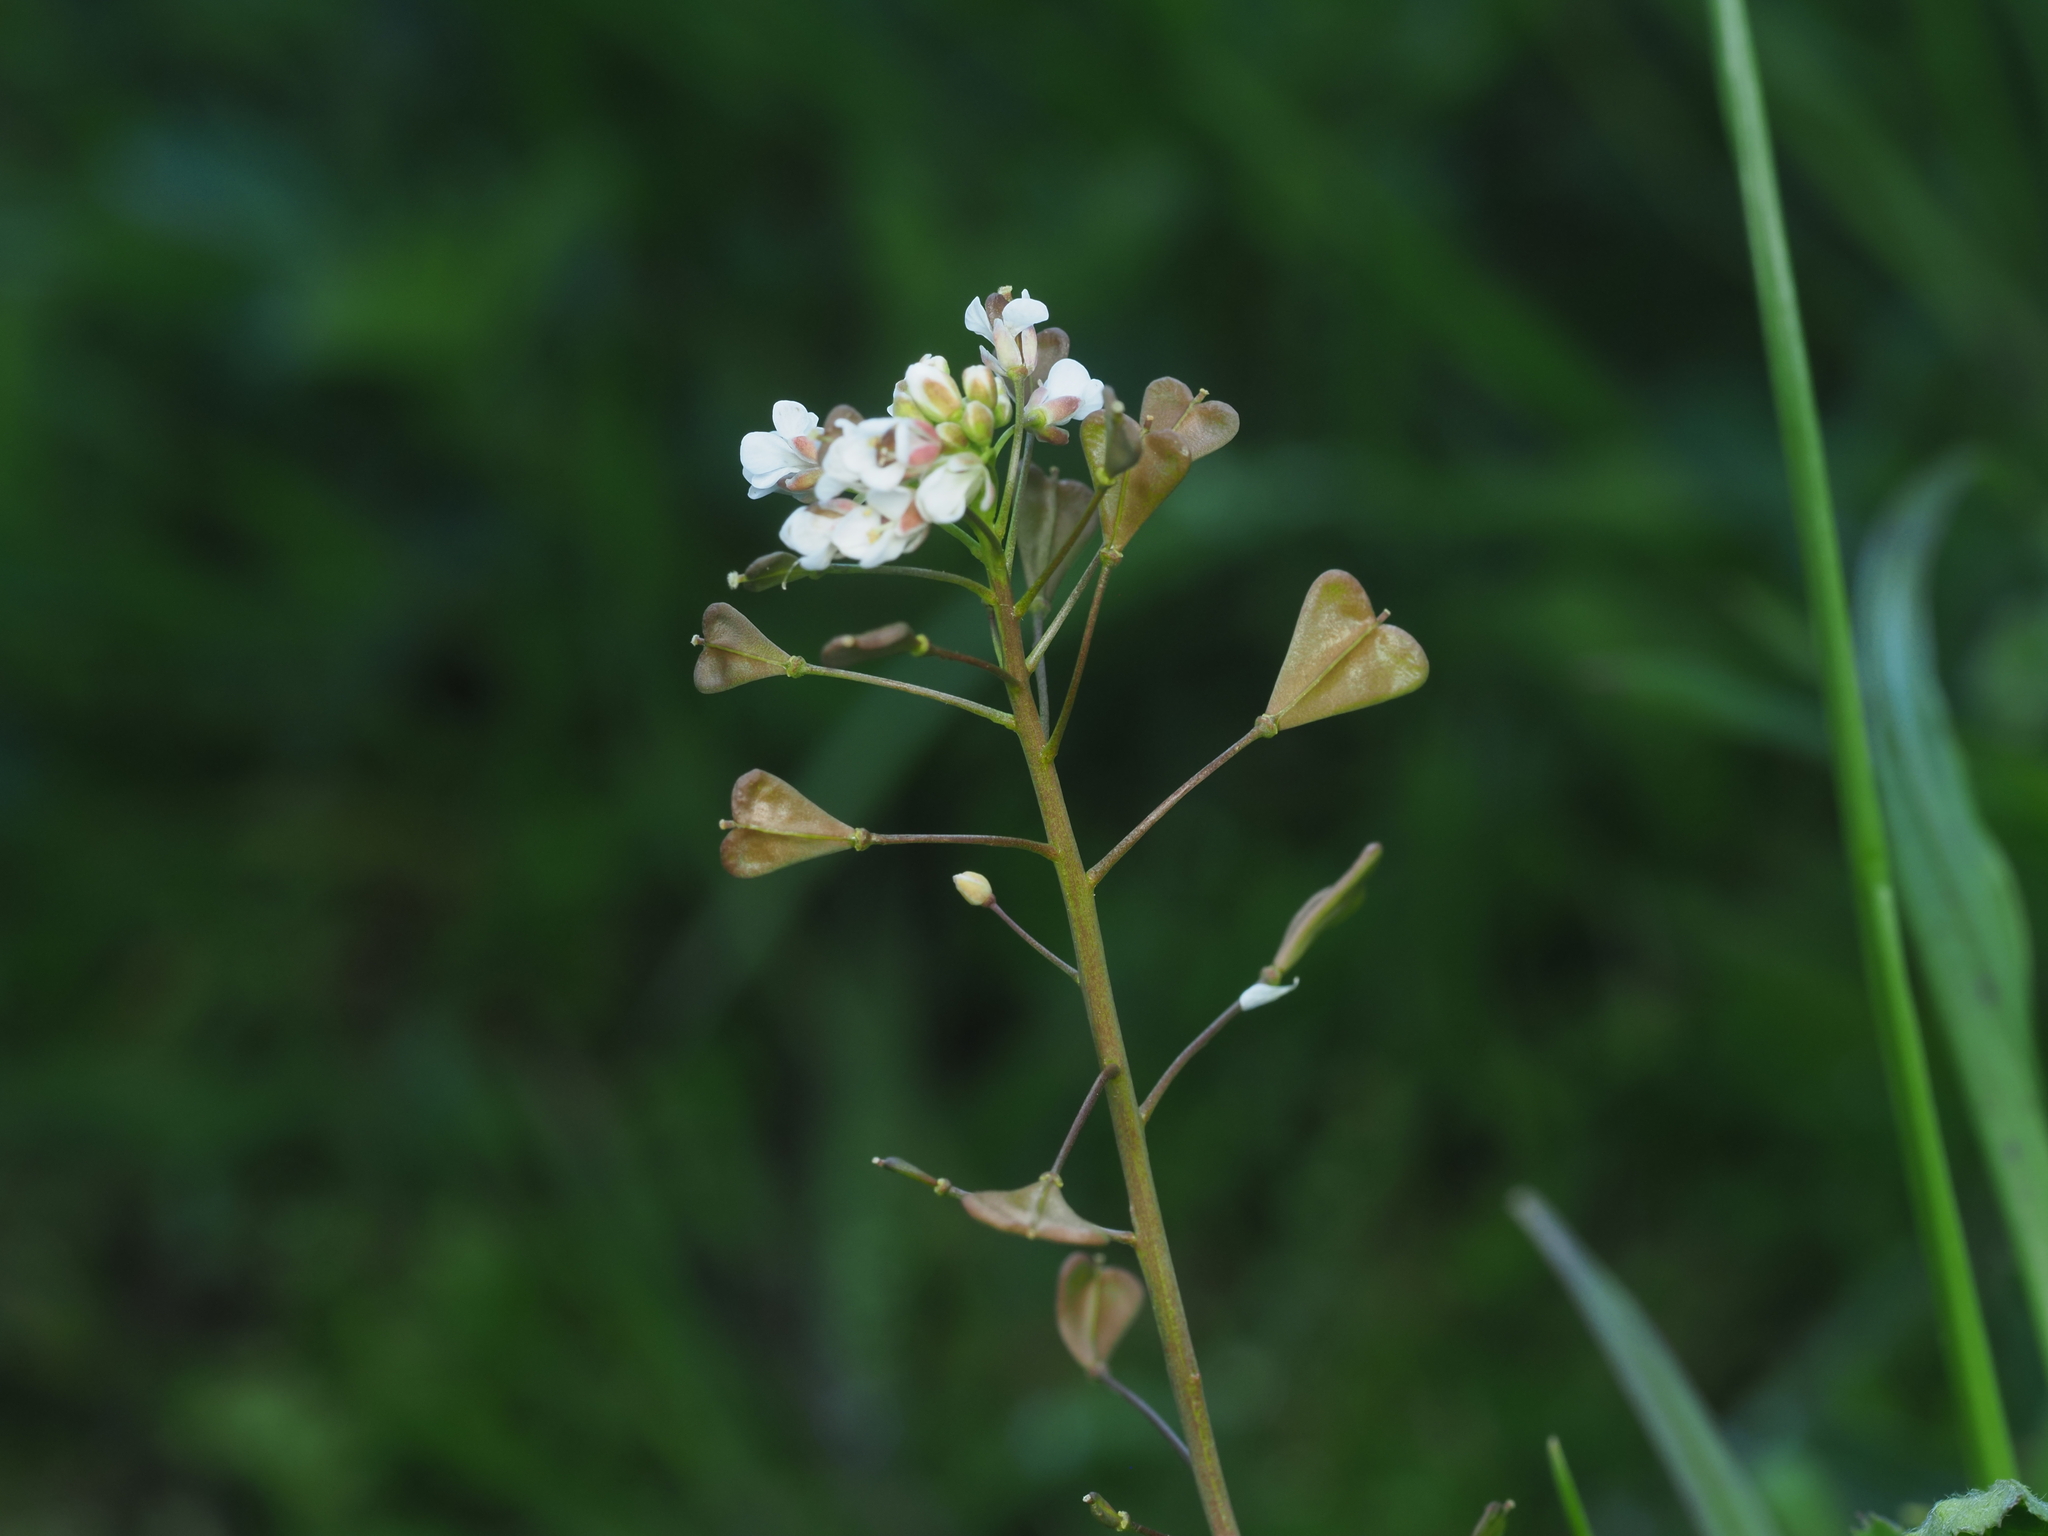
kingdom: Plantae
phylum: Tracheophyta
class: Magnoliopsida
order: Brassicales
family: Brassicaceae
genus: Capsella
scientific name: Capsella bursa-pastoris
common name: Shepherd's purse
